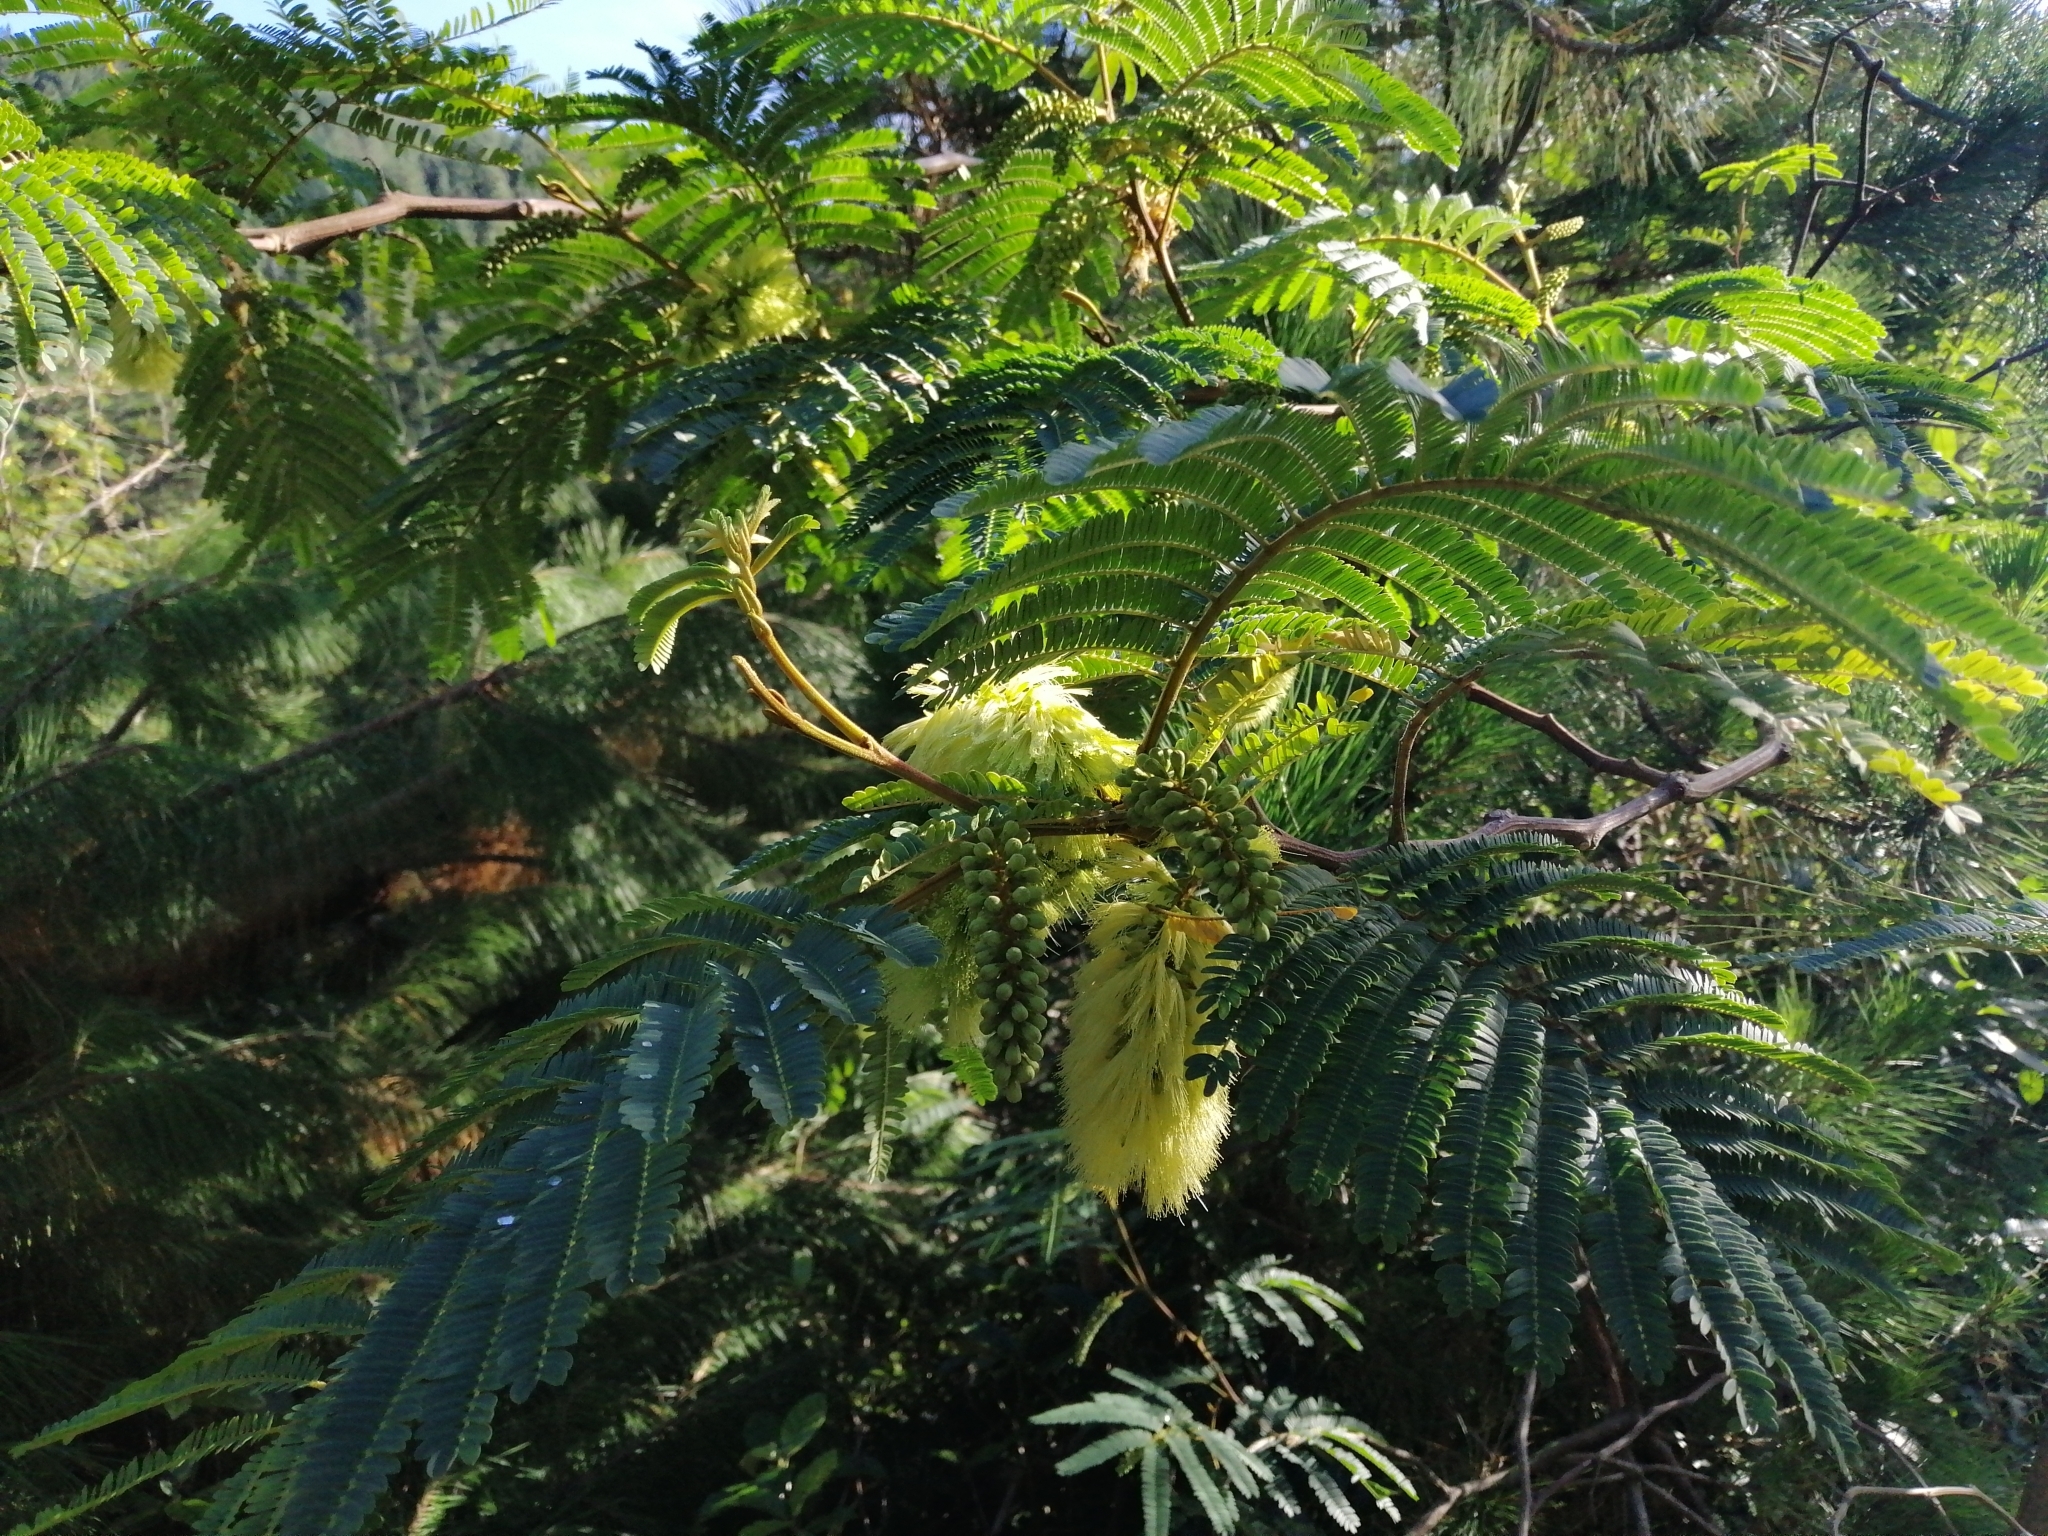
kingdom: Plantae
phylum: Tracheophyta
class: Magnoliopsida
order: Fabales
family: Fabaceae
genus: Paraserianthes
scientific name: Paraserianthes lophantha
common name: Plume albizia
